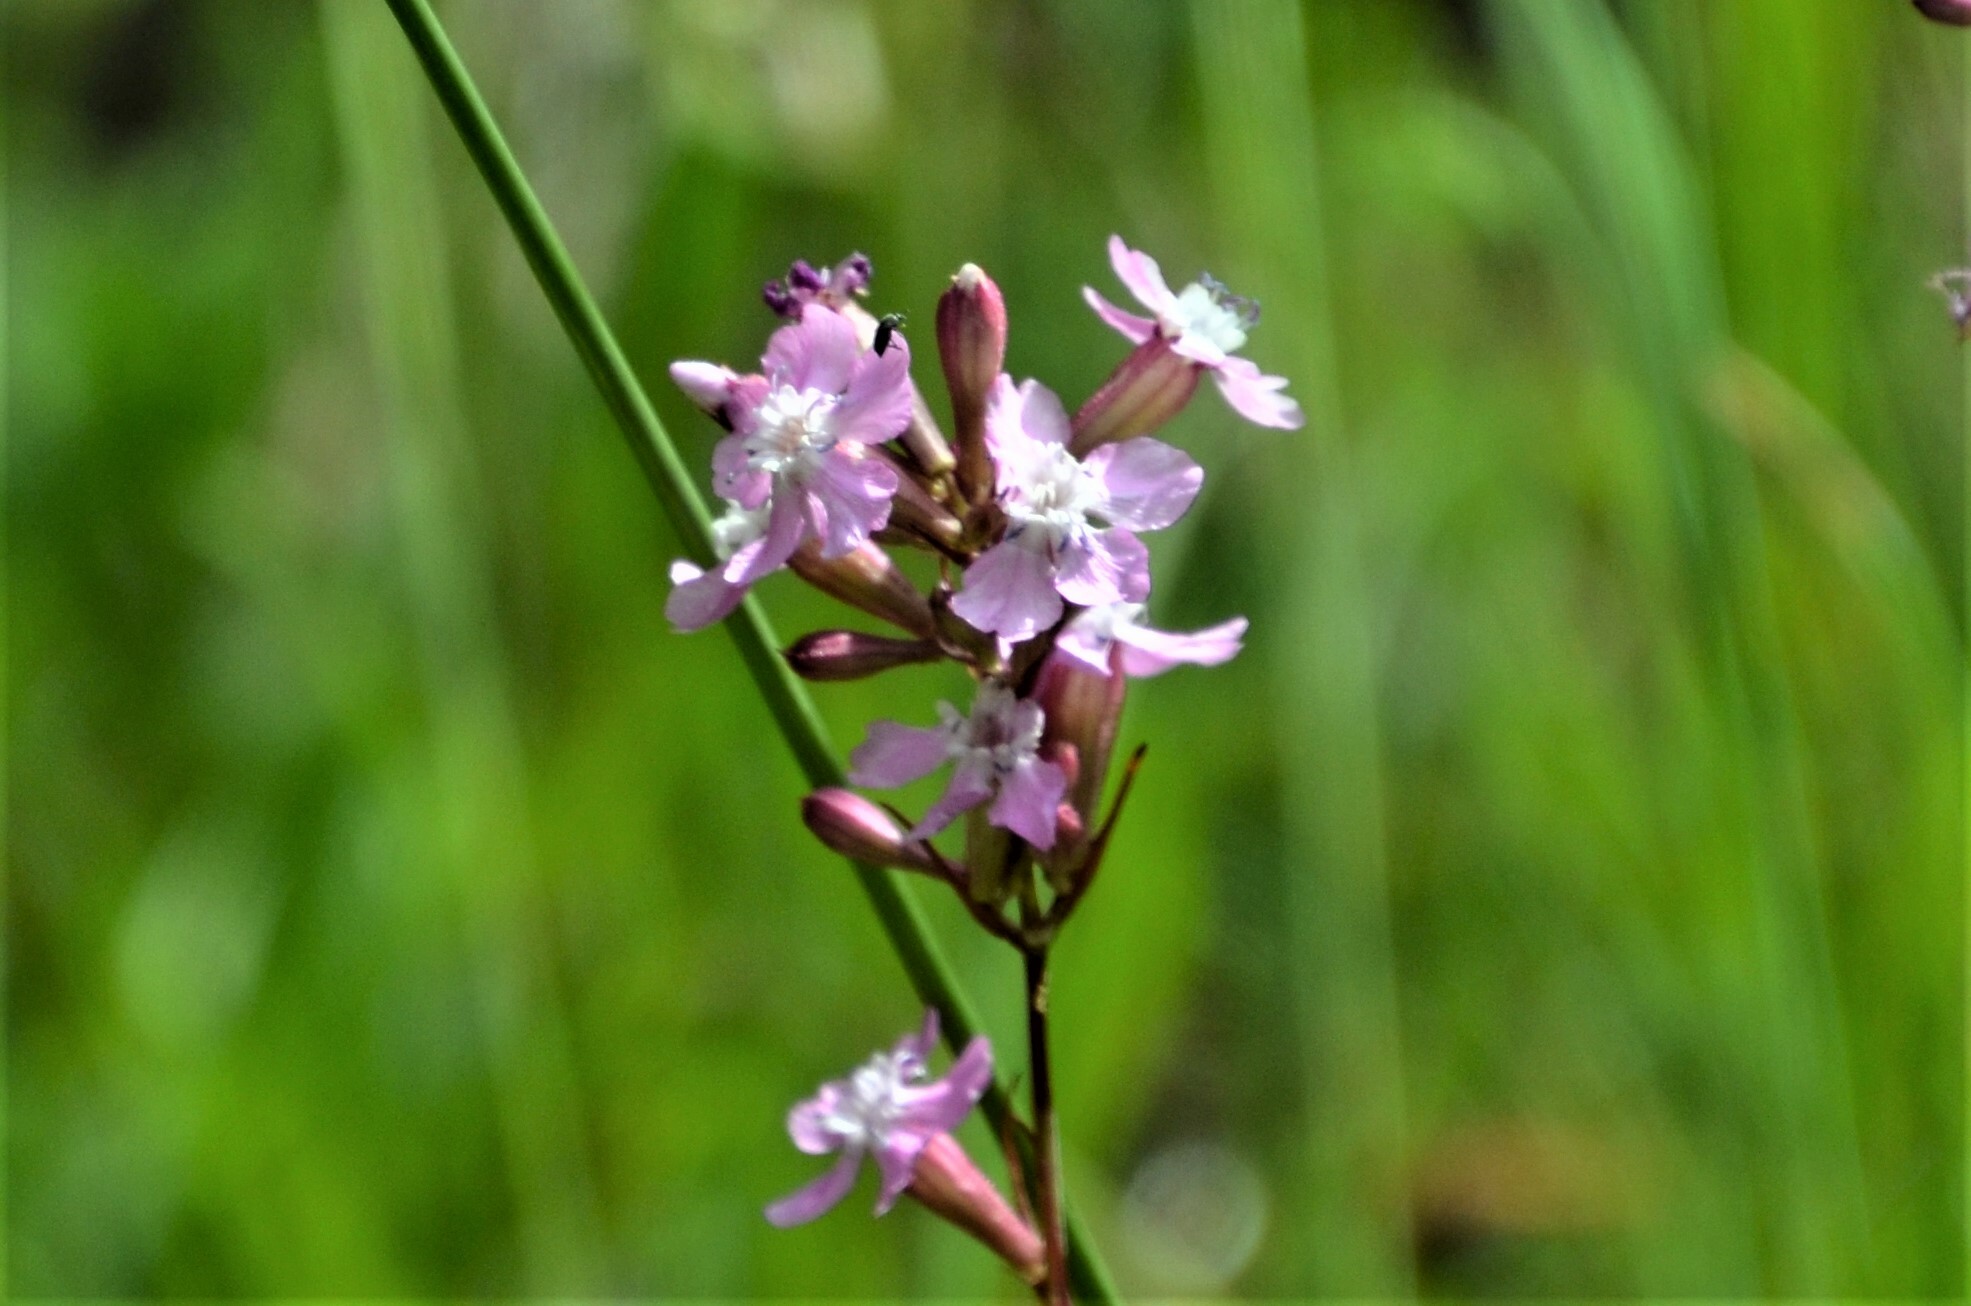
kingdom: Plantae
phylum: Tracheophyta
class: Magnoliopsida
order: Caryophyllales
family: Caryophyllaceae
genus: Viscaria
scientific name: Viscaria vulgaris
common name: Clammy campion
